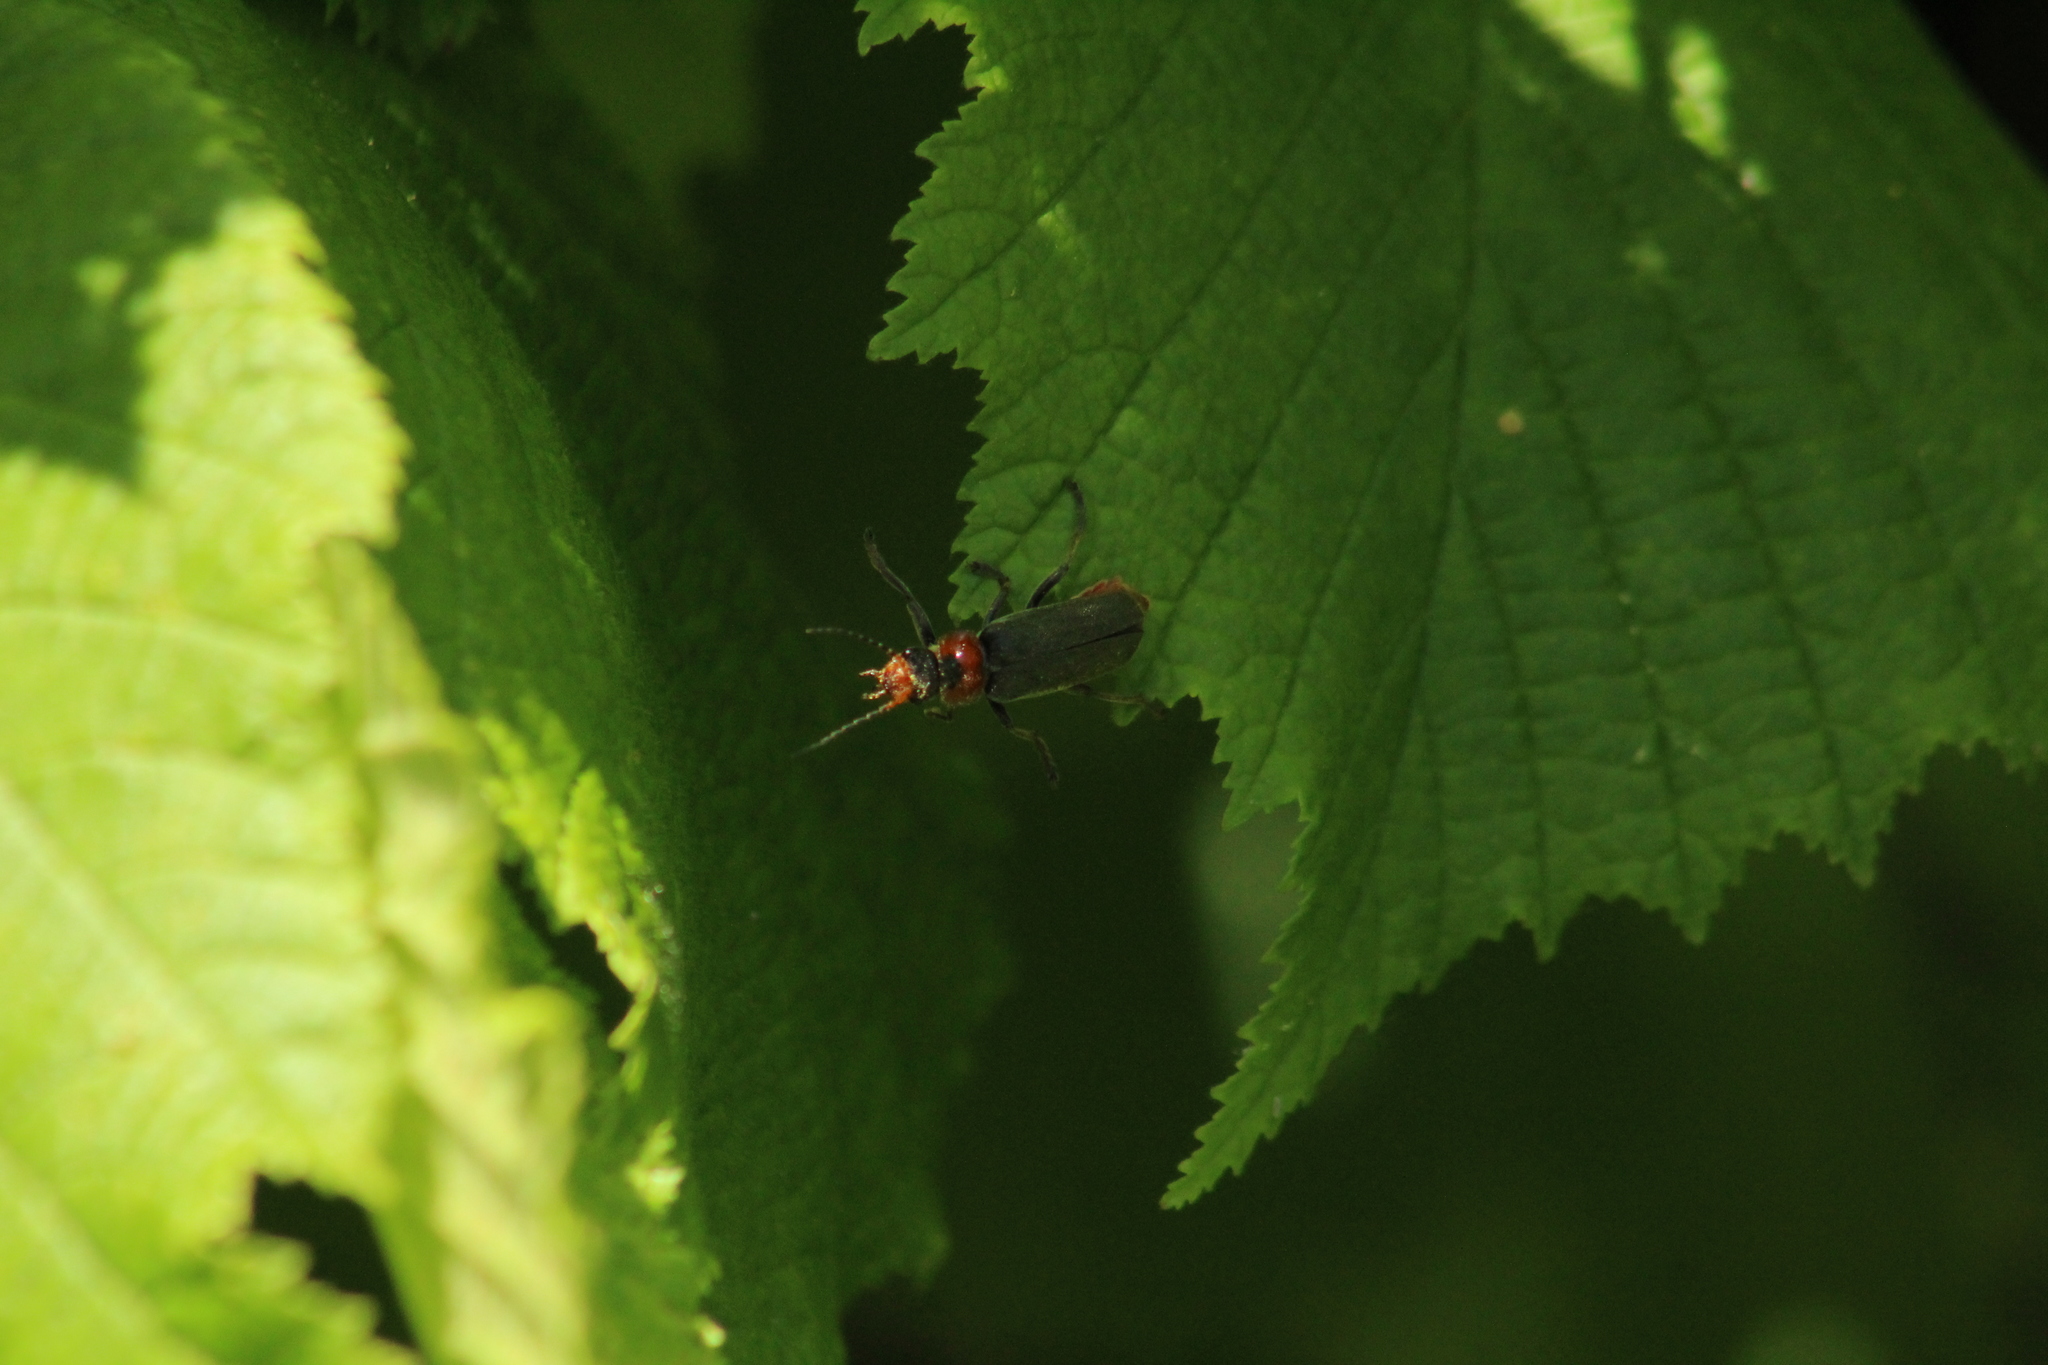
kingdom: Animalia
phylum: Arthropoda
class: Insecta
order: Coleoptera
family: Cantharidae
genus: Cantharis
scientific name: Cantharis fusca
